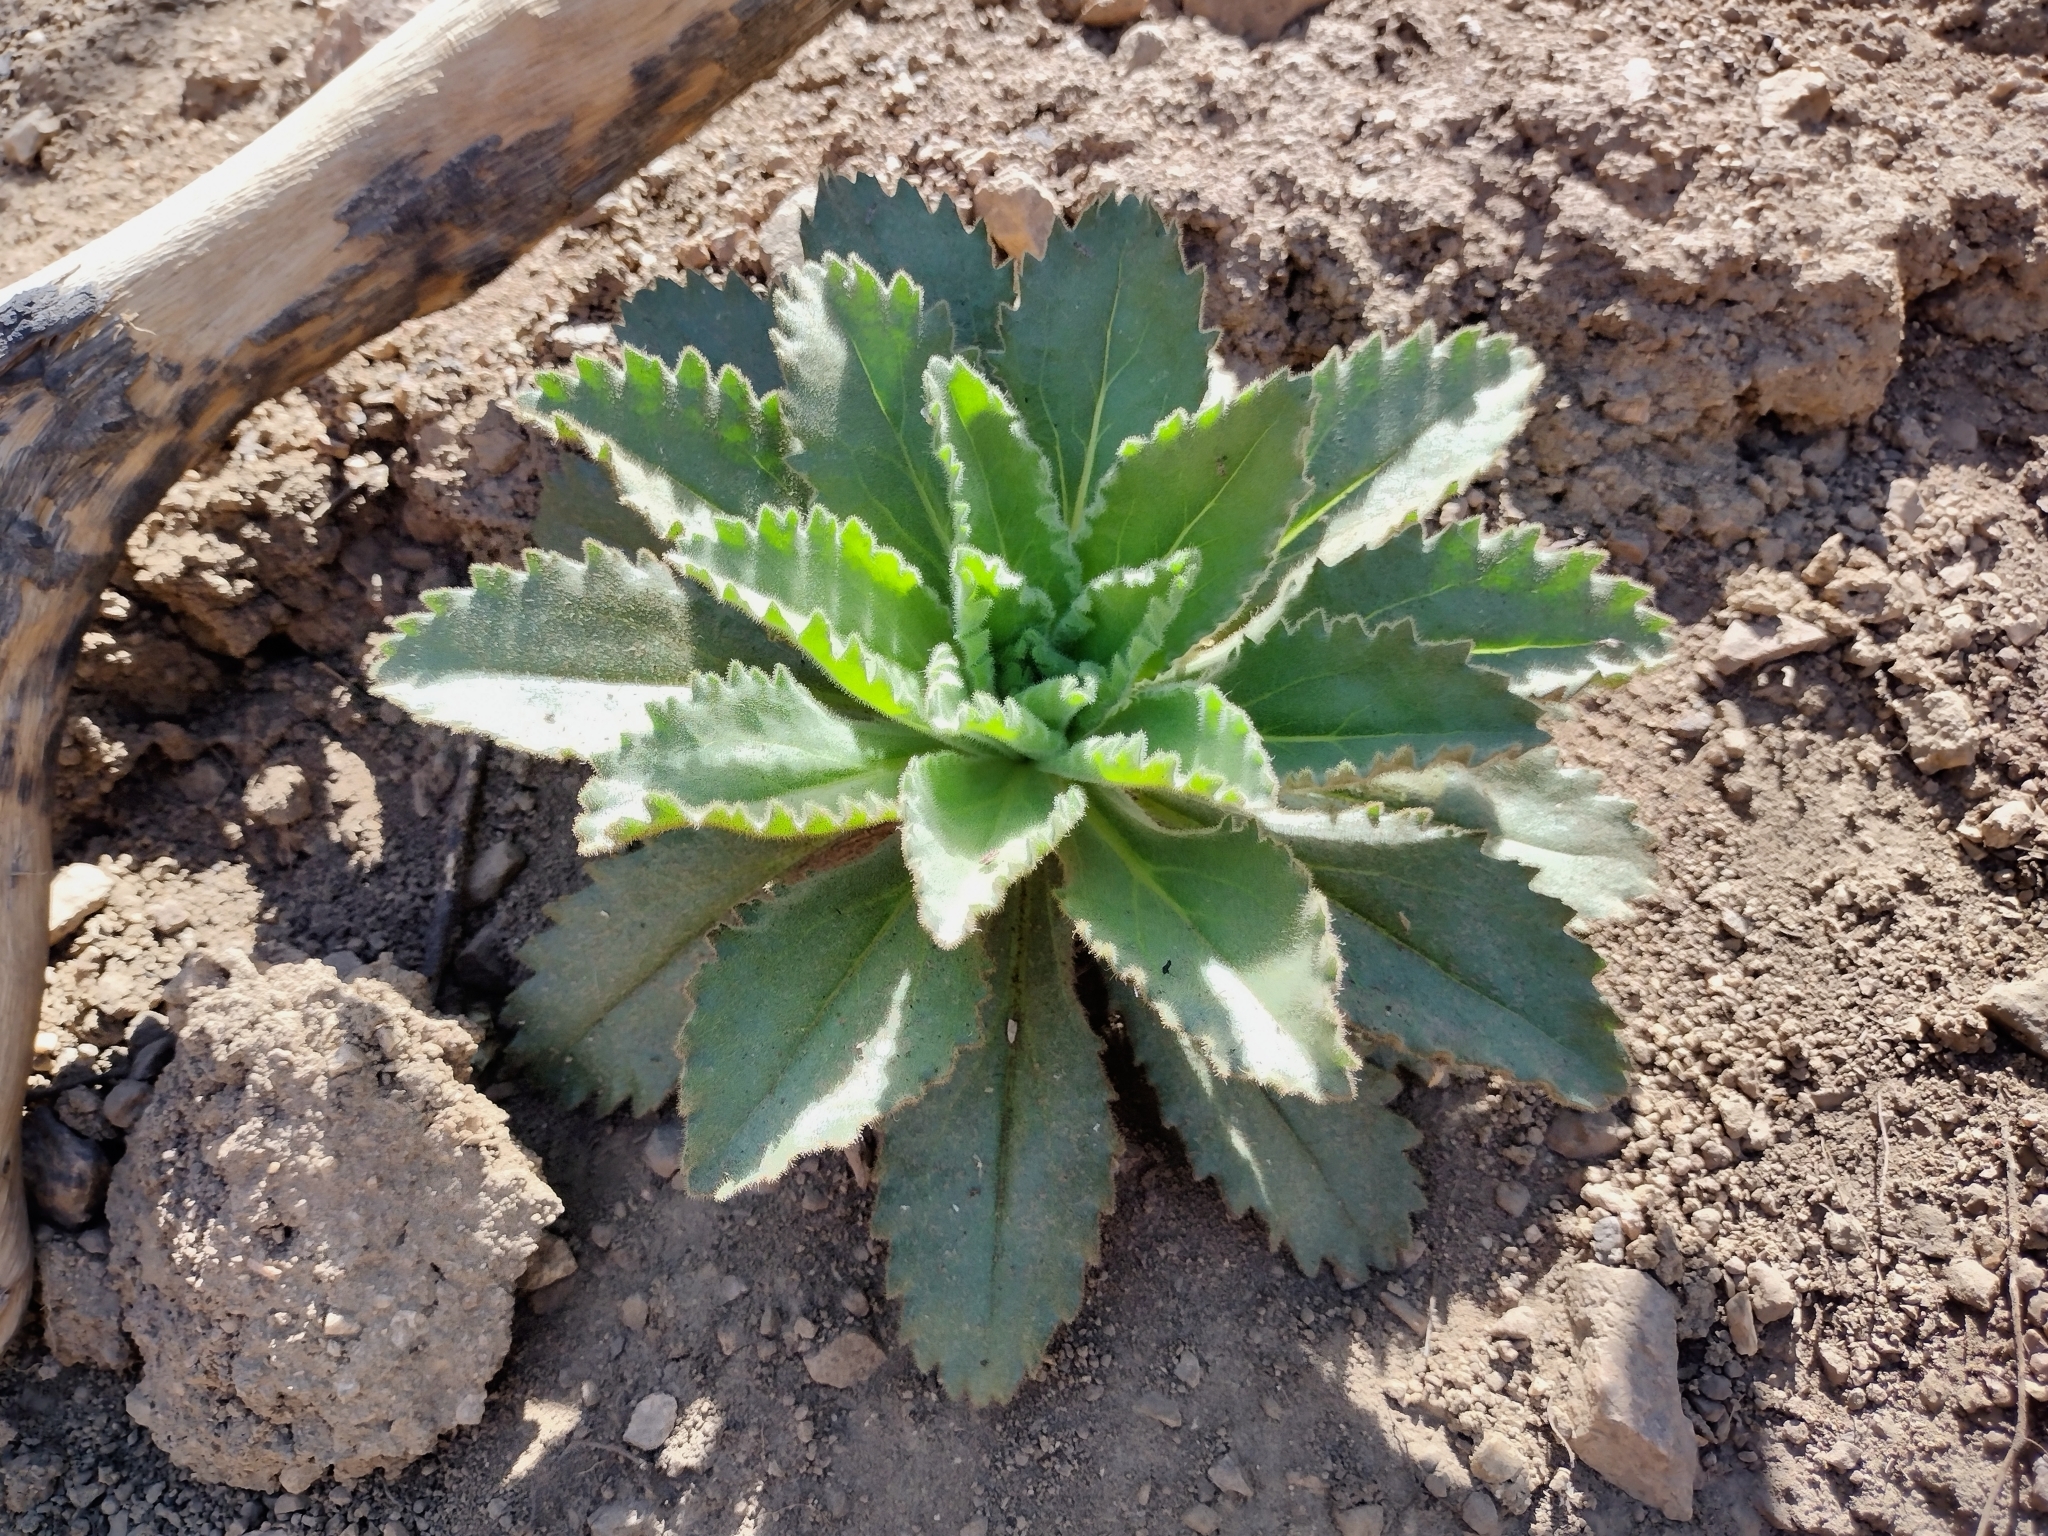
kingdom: Plantae
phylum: Tracheophyta
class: Magnoliopsida
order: Asterales
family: Asteraceae
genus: Hulsea
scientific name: Hulsea heterochroma
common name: Redray alpinegold
